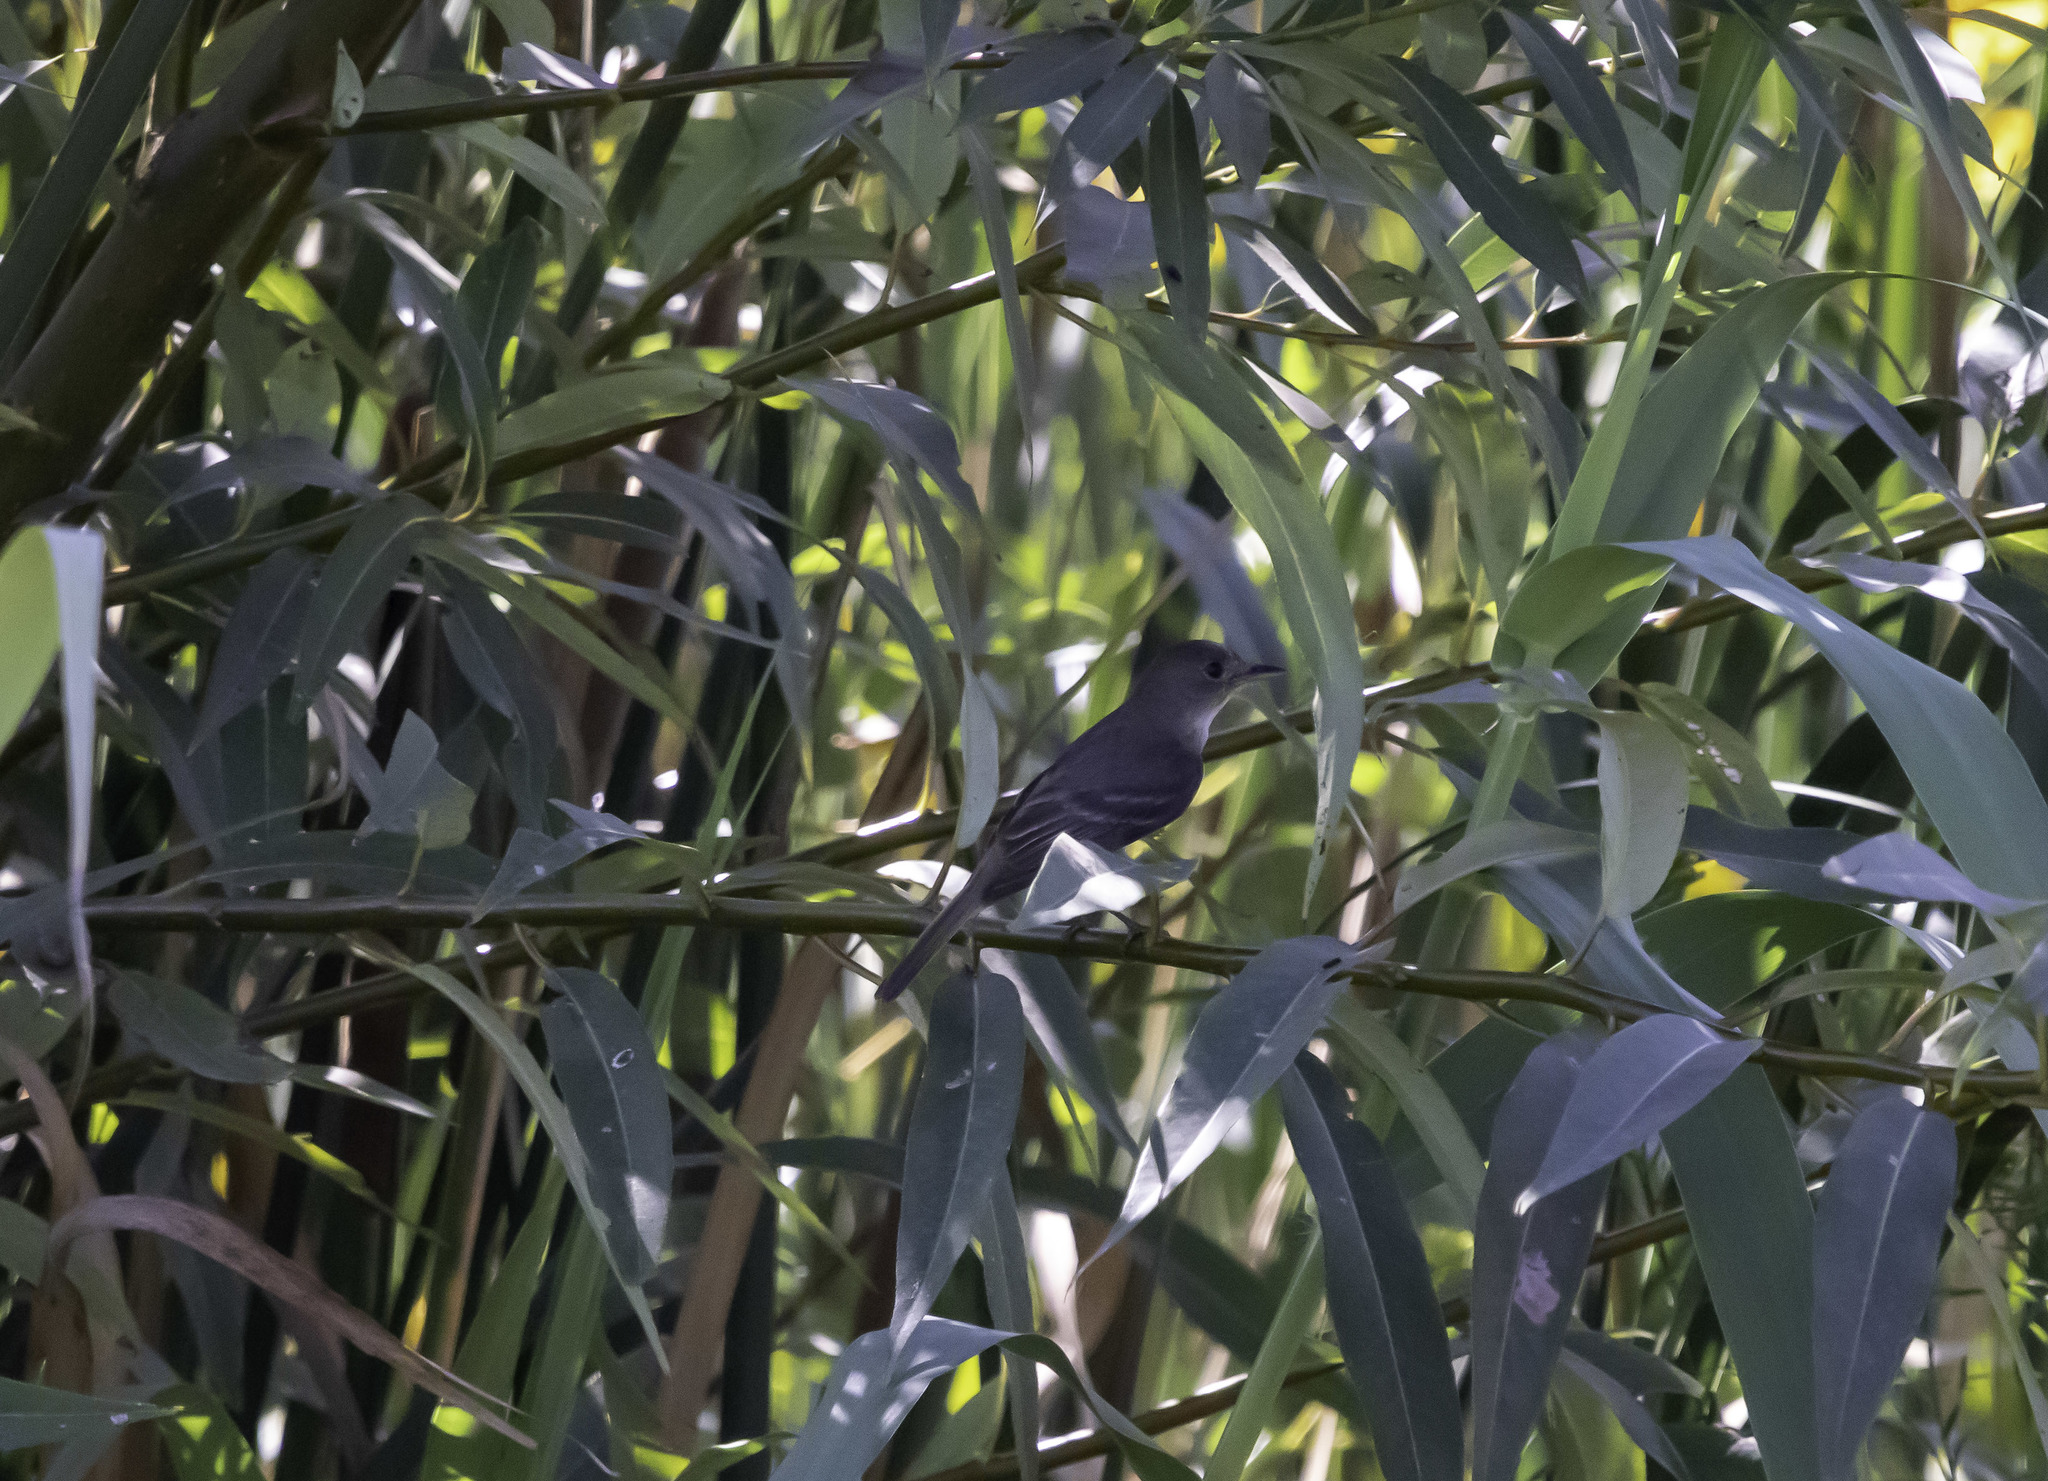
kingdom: Animalia
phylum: Chordata
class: Aves
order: Passeriformes
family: Tyrannidae
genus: Empidonax
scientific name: Empidonax traillii
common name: Willow flycatcher
